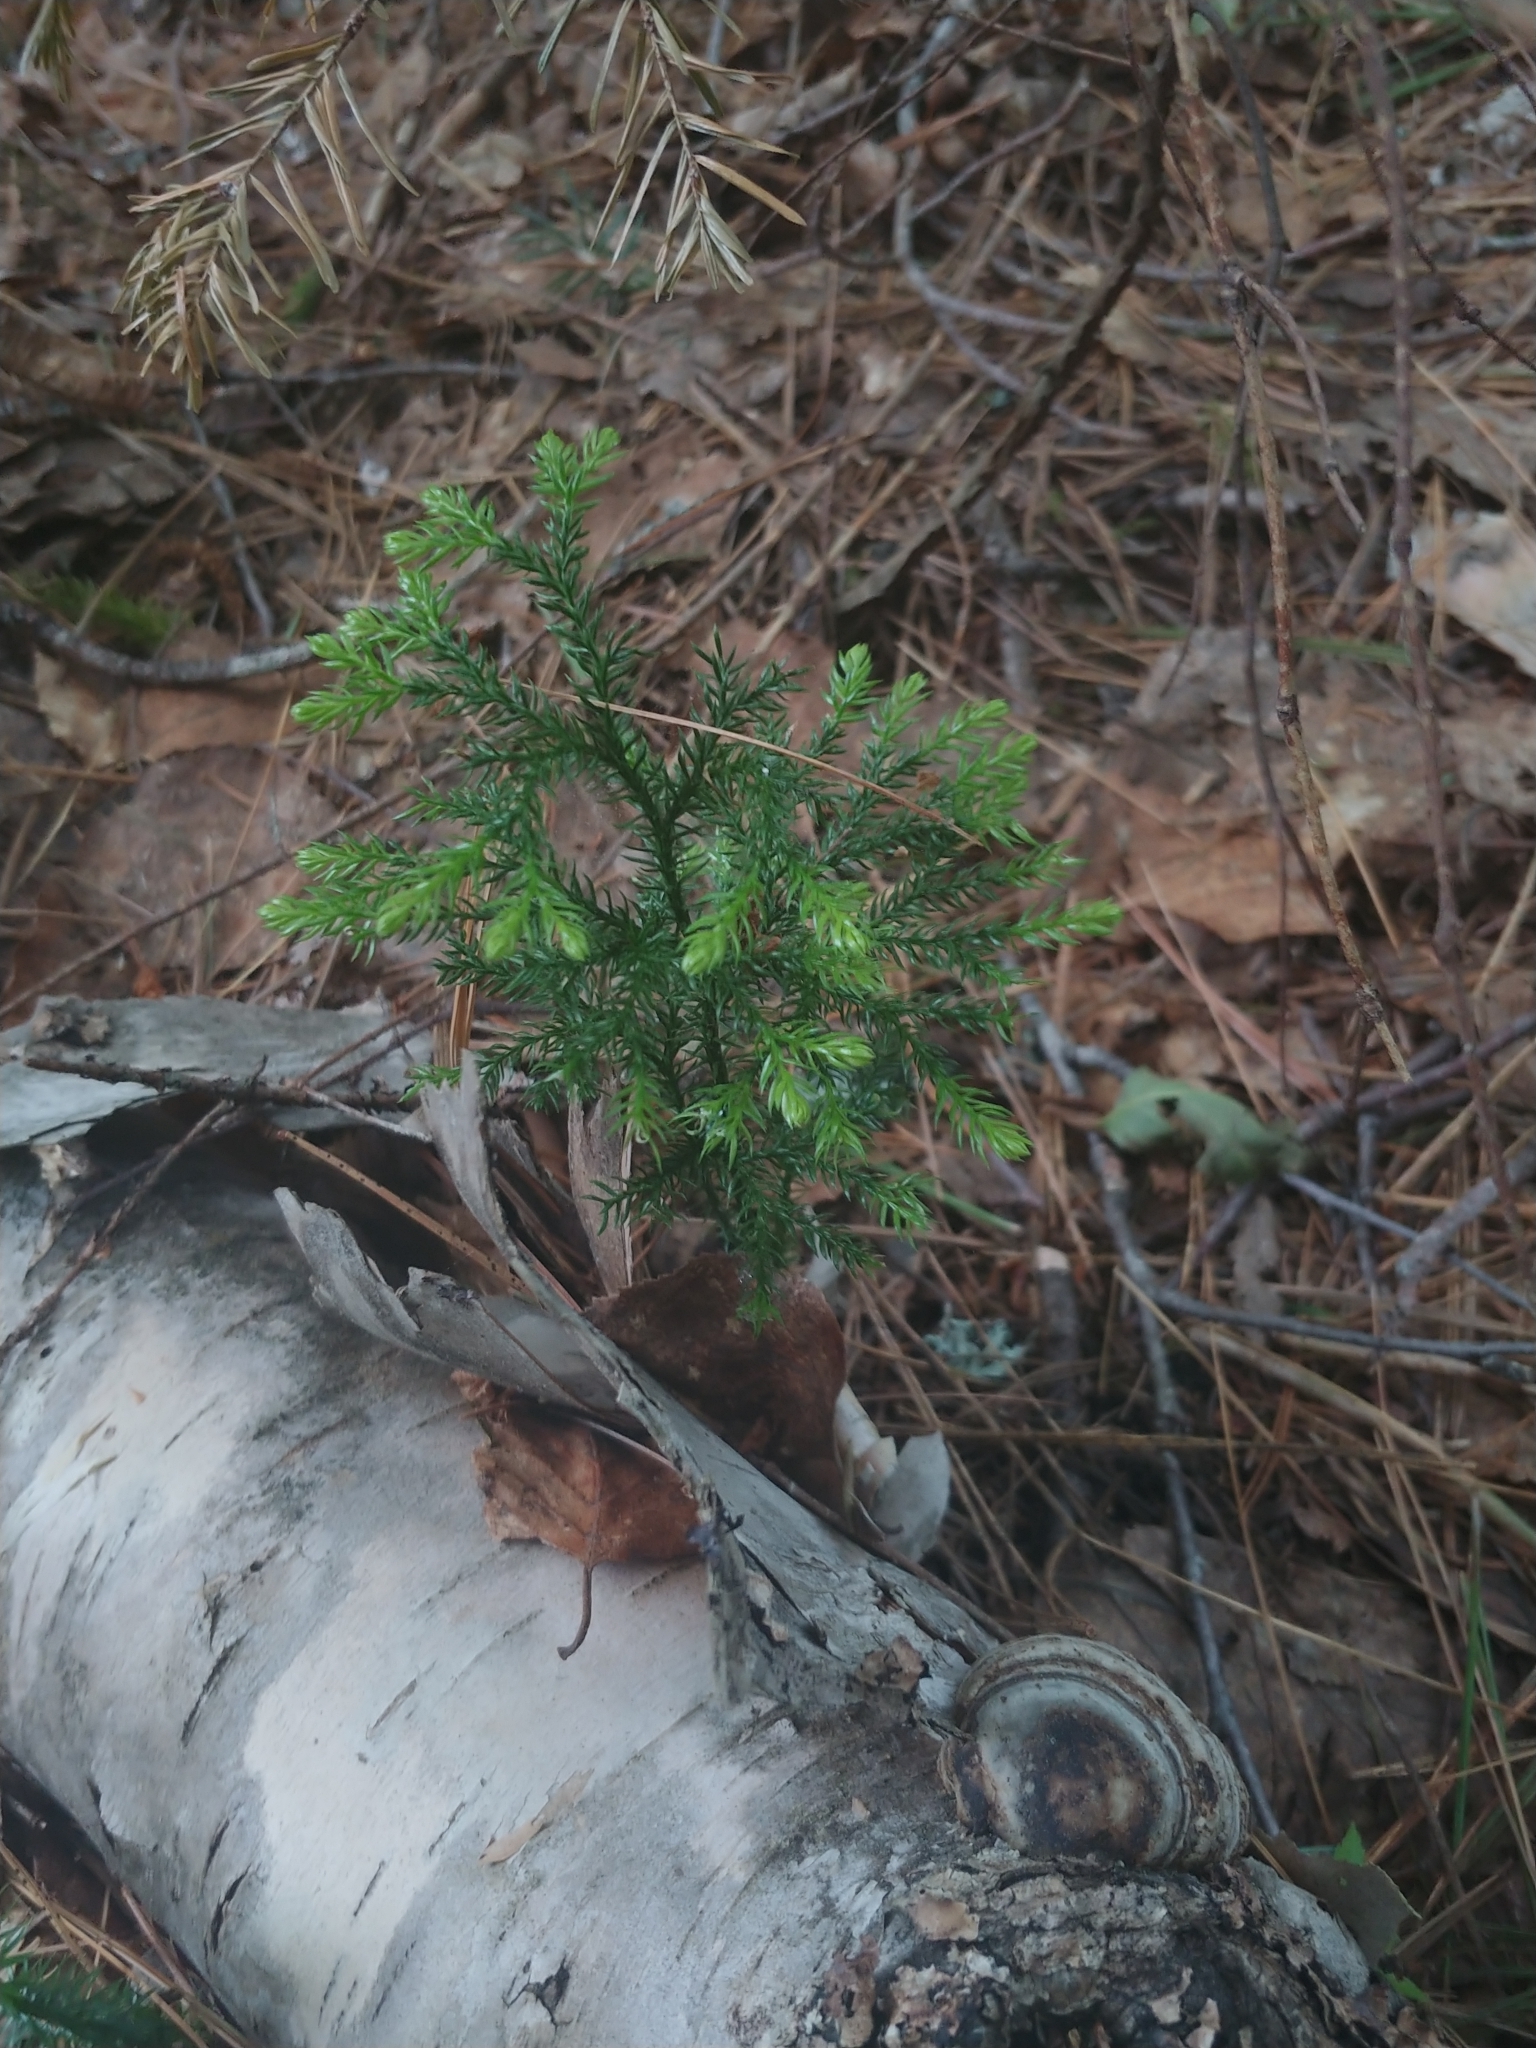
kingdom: Plantae
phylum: Tracheophyta
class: Lycopodiopsida
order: Lycopodiales
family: Lycopodiaceae
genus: Dendrolycopodium
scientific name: Dendrolycopodium dendroideum
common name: Northern tree-clubmoss
